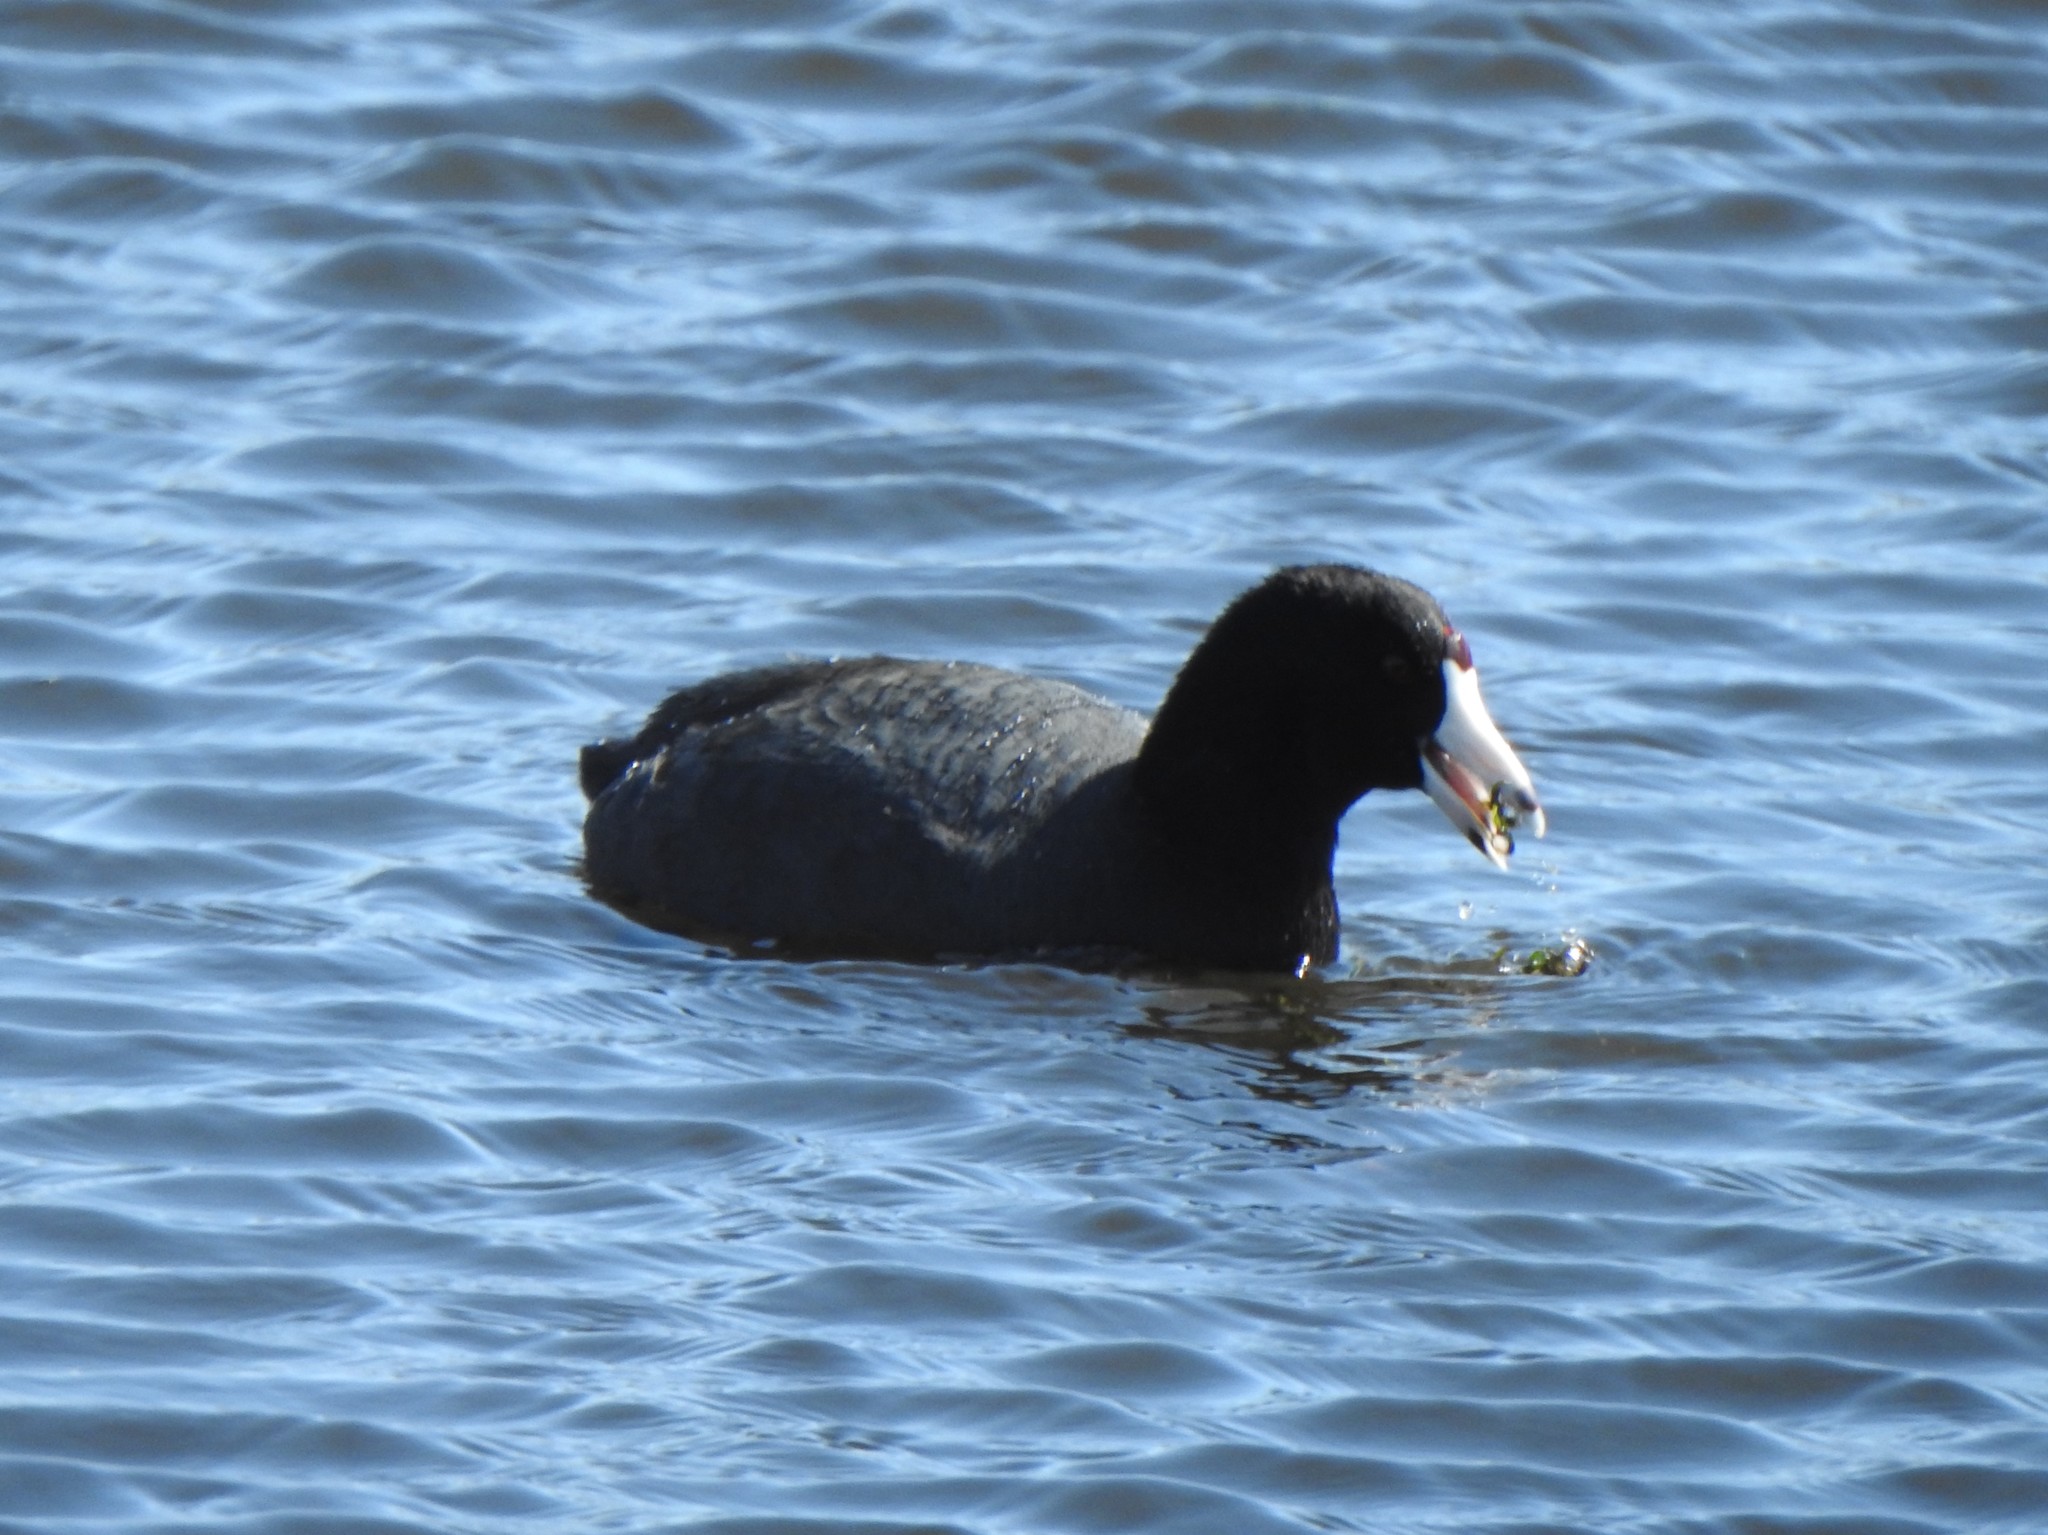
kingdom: Animalia
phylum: Chordata
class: Aves
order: Gruiformes
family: Rallidae
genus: Fulica
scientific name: Fulica americana
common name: American coot
